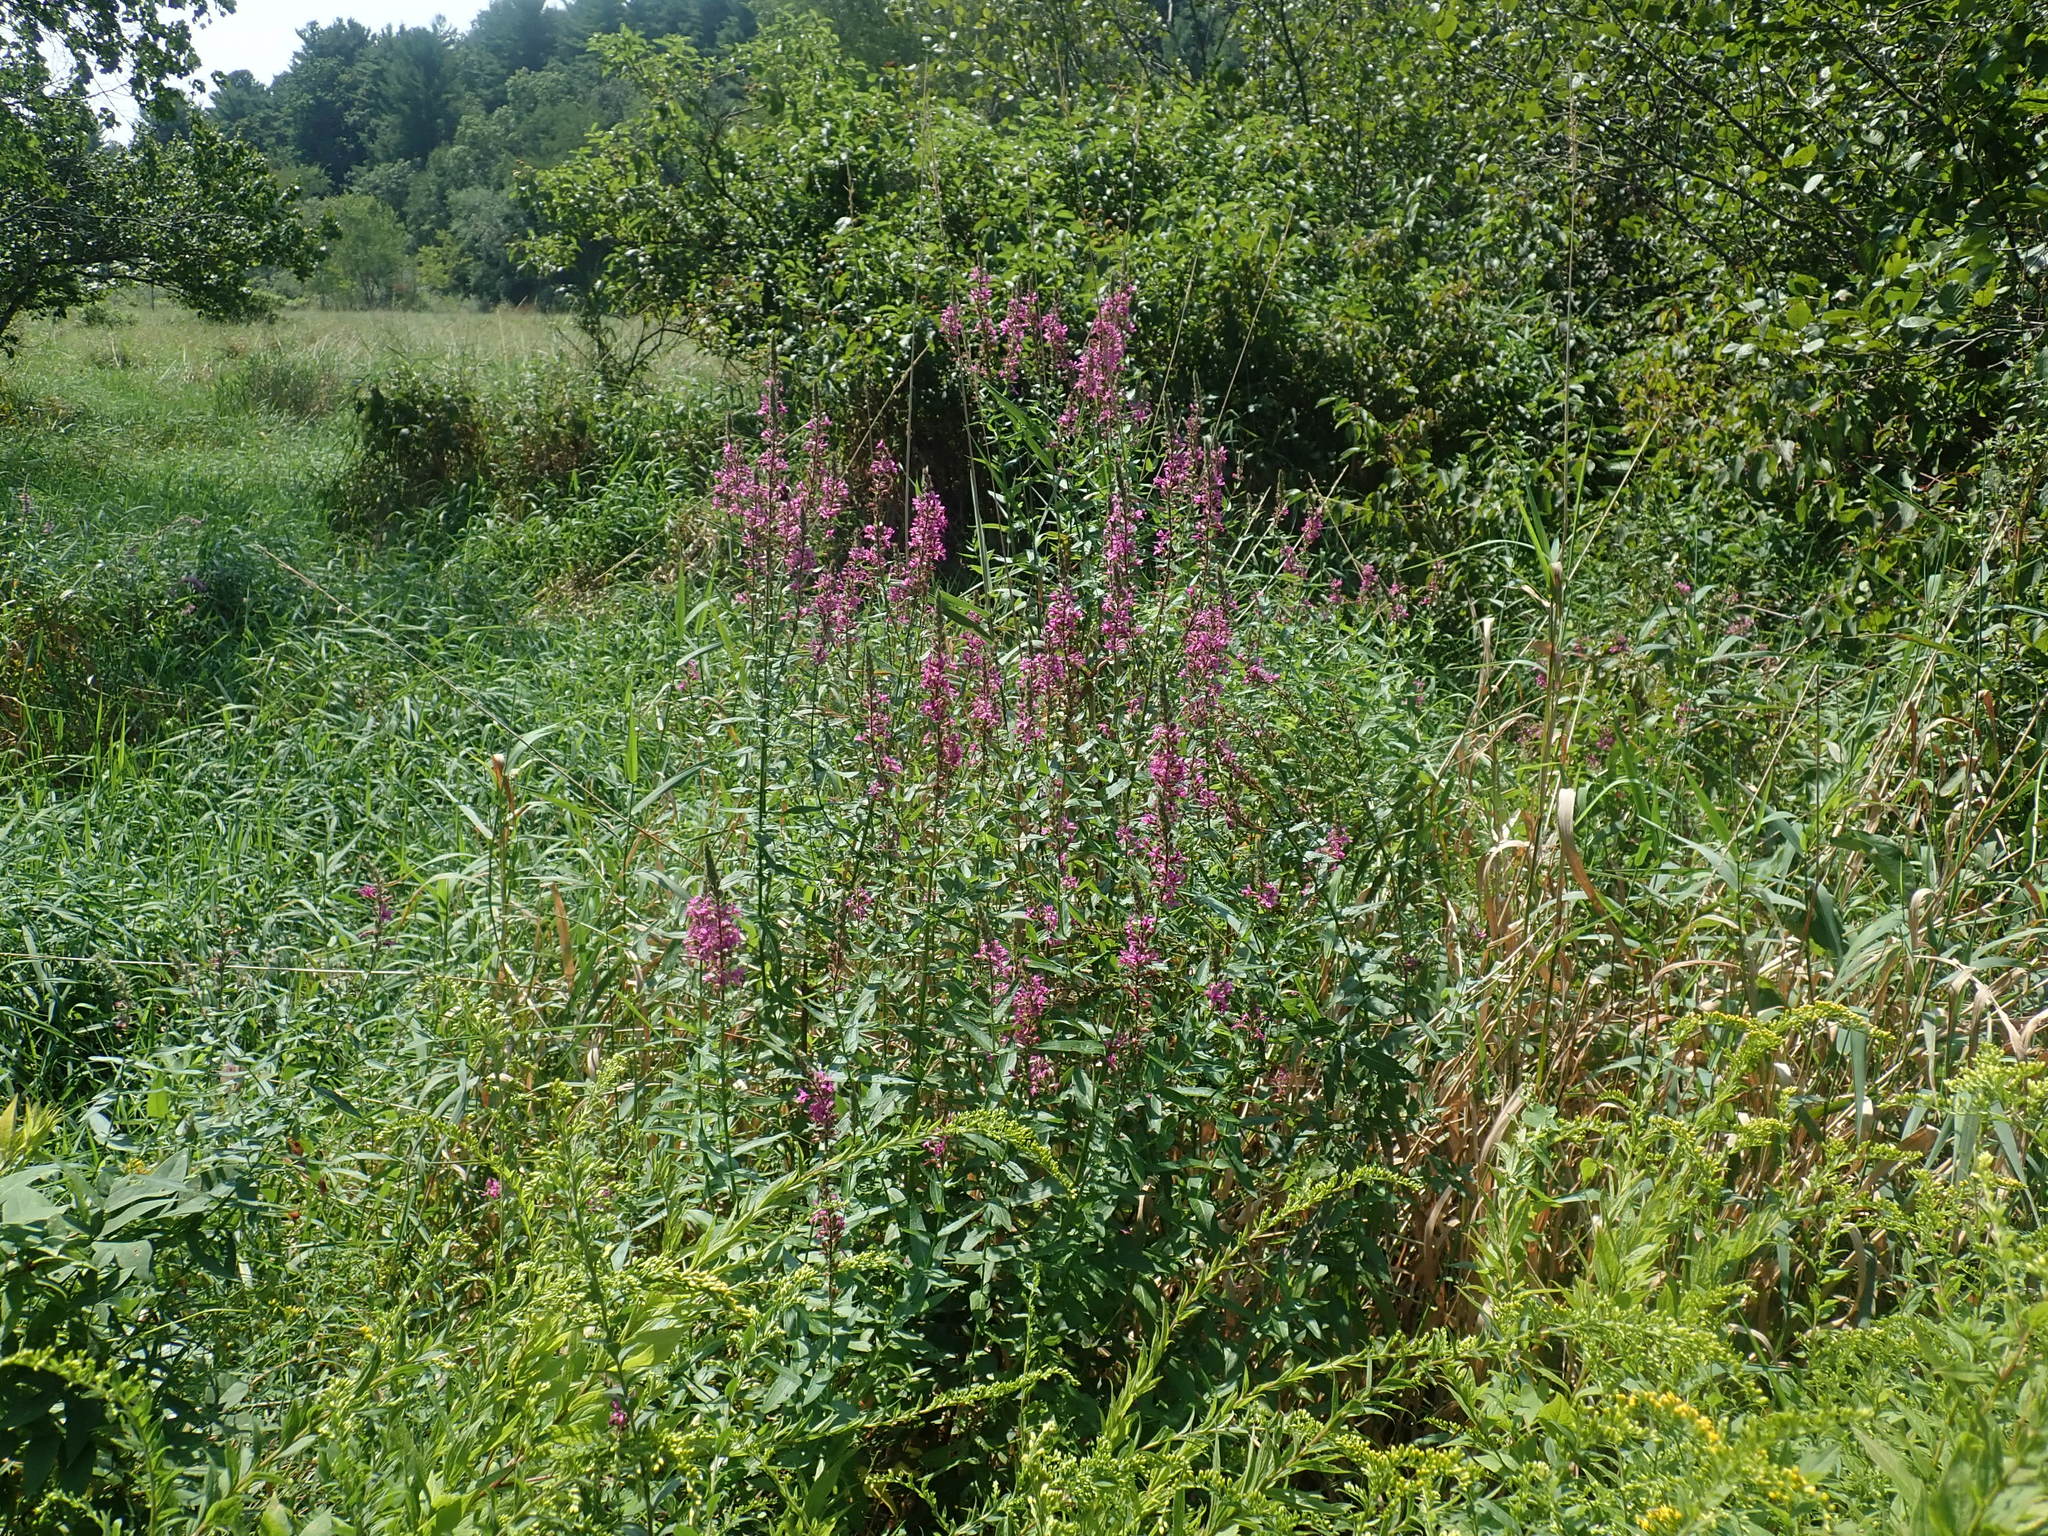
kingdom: Plantae
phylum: Tracheophyta
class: Magnoliopsida
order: Myrtales
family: Lythraceae
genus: Lythrum
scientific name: Lythrum salicaria
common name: Purple loosestrife
